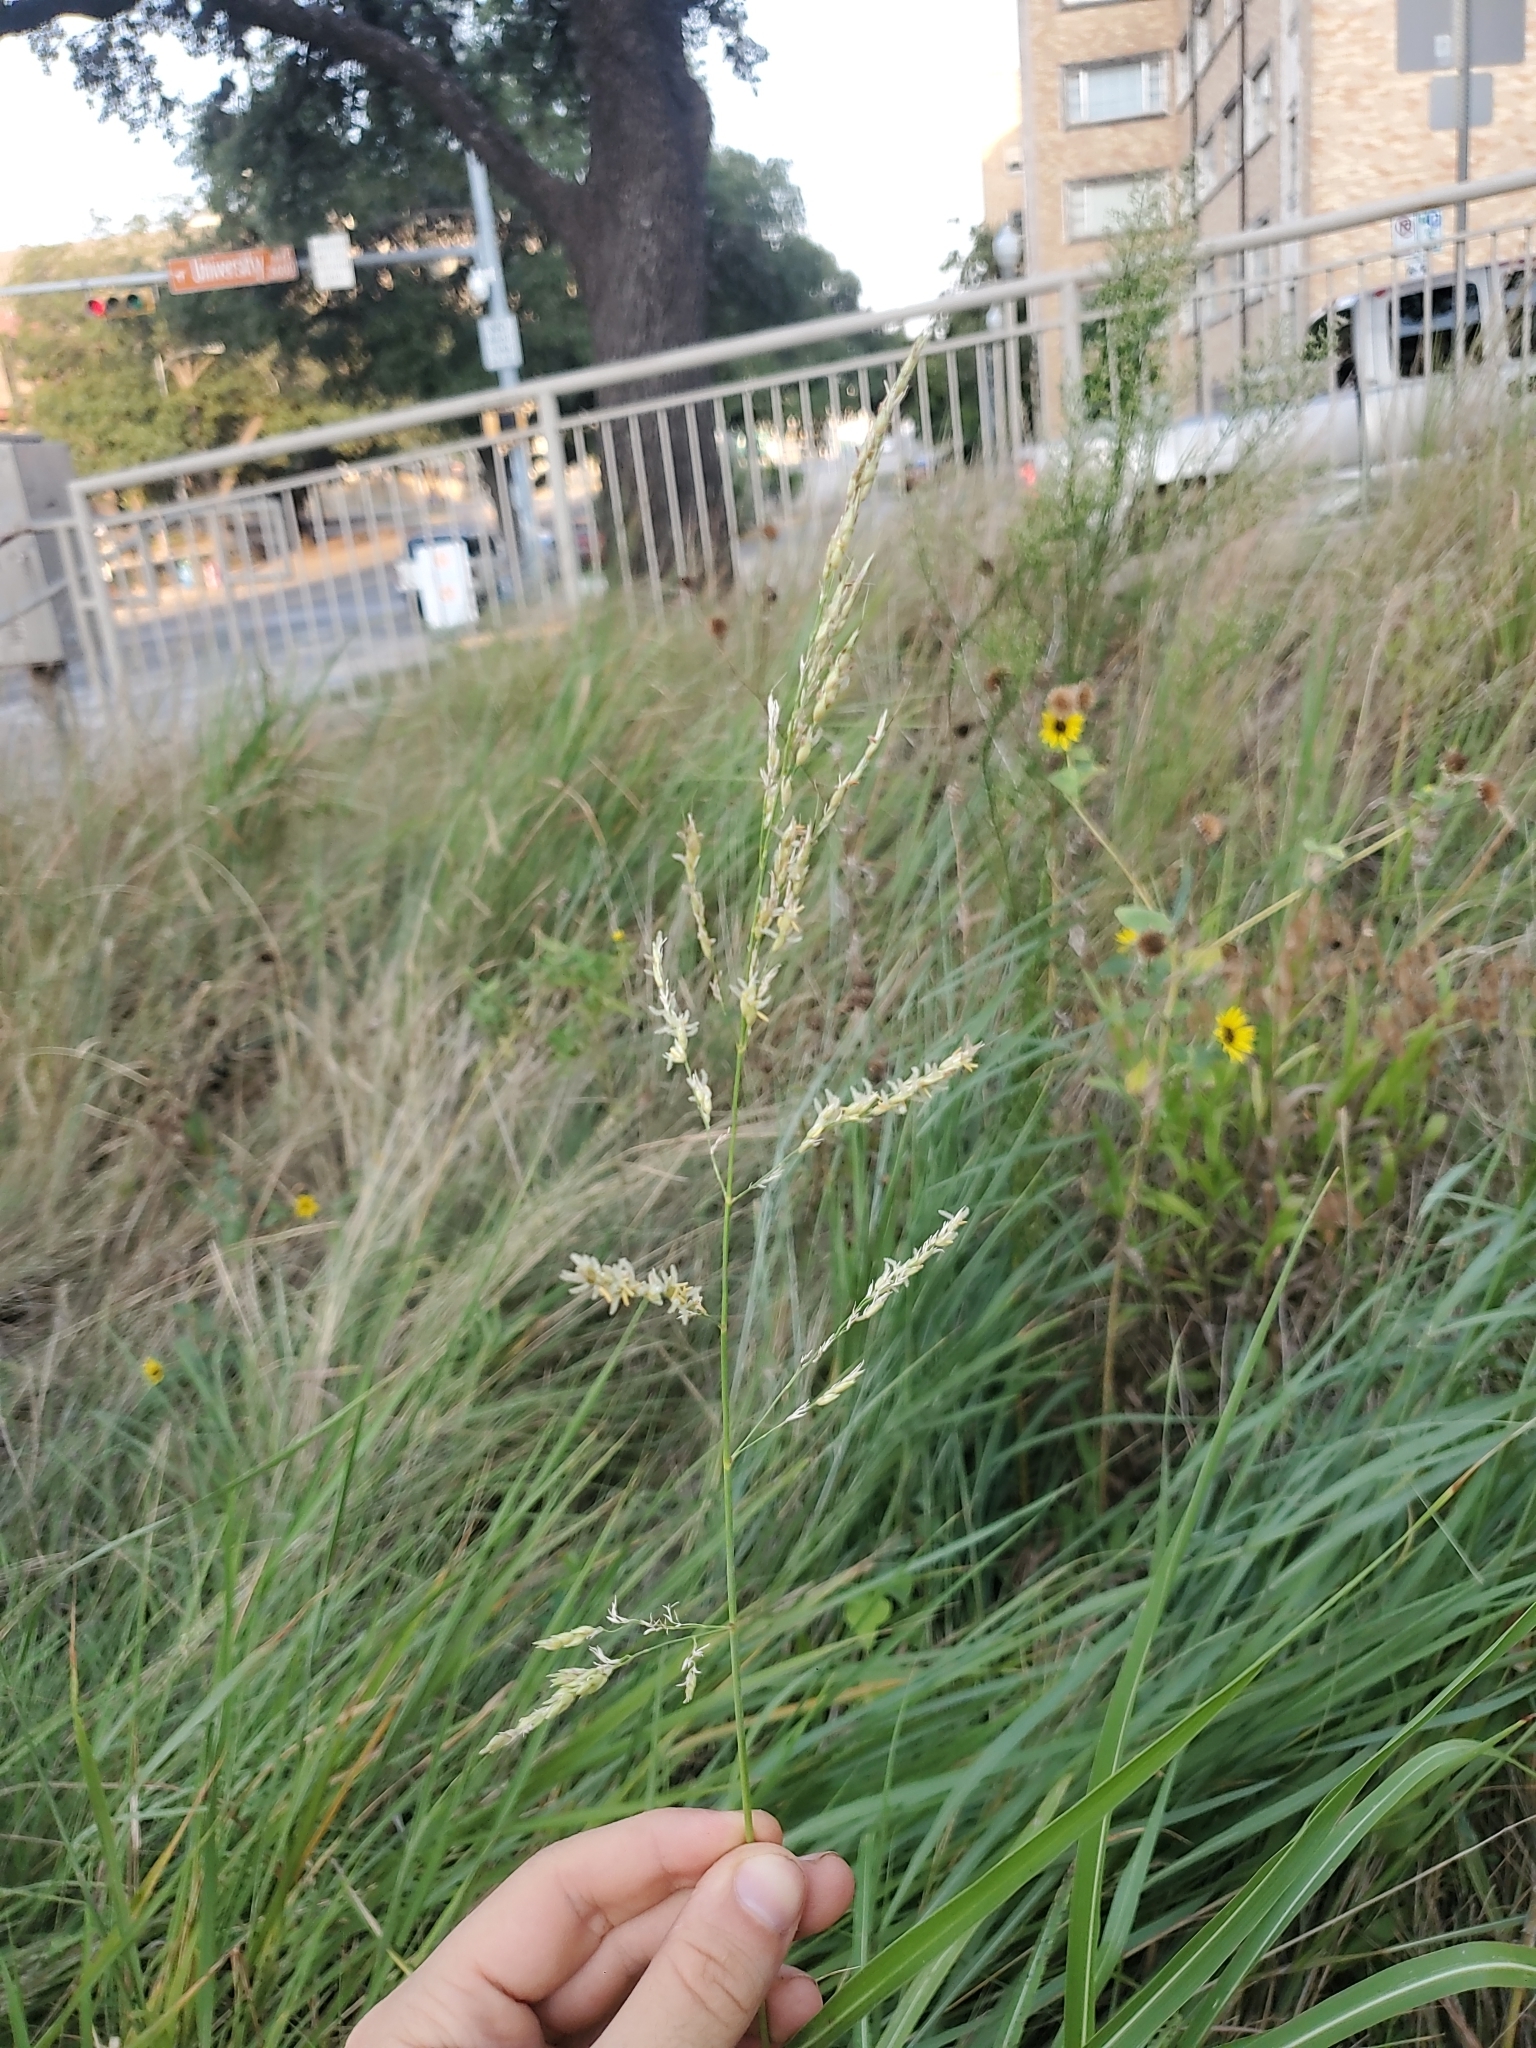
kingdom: Plantae
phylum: Tracheophyta
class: Liliopsida
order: Poales
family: Poaceae
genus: Sorghum
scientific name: Sorghum halepense
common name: Johnson-grass
